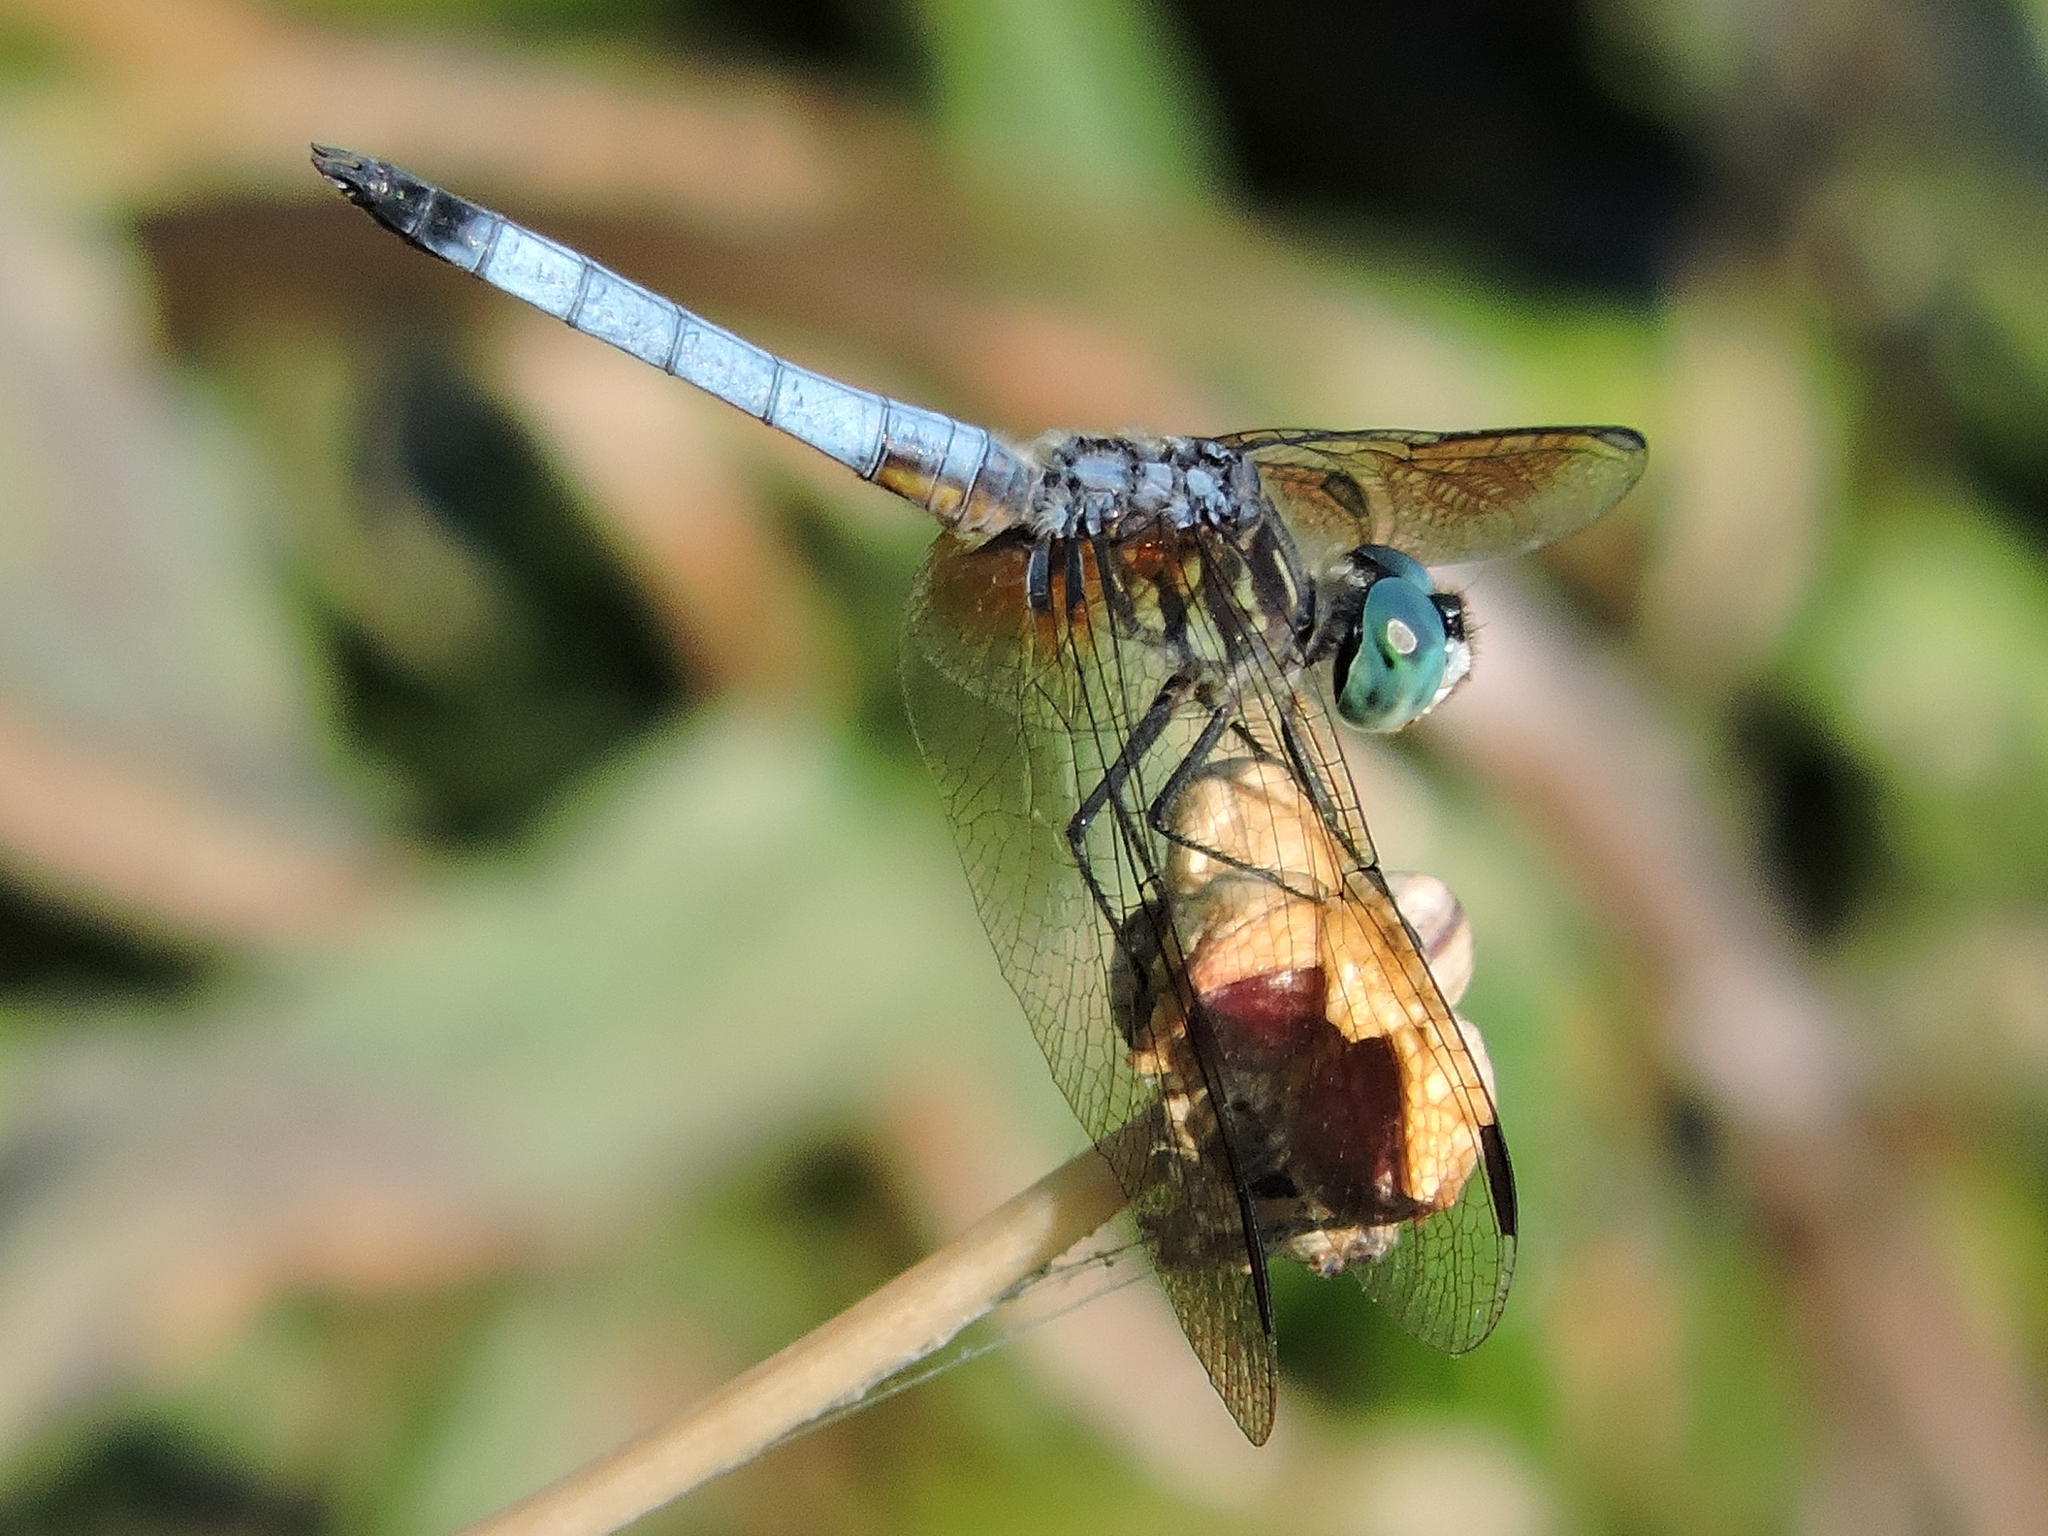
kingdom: Animalia
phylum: Arthropoda
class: Insecta
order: Odonata
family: Libellulidae
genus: Pachydiplax
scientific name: Pachydiplax longipennis
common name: Blue dasher
